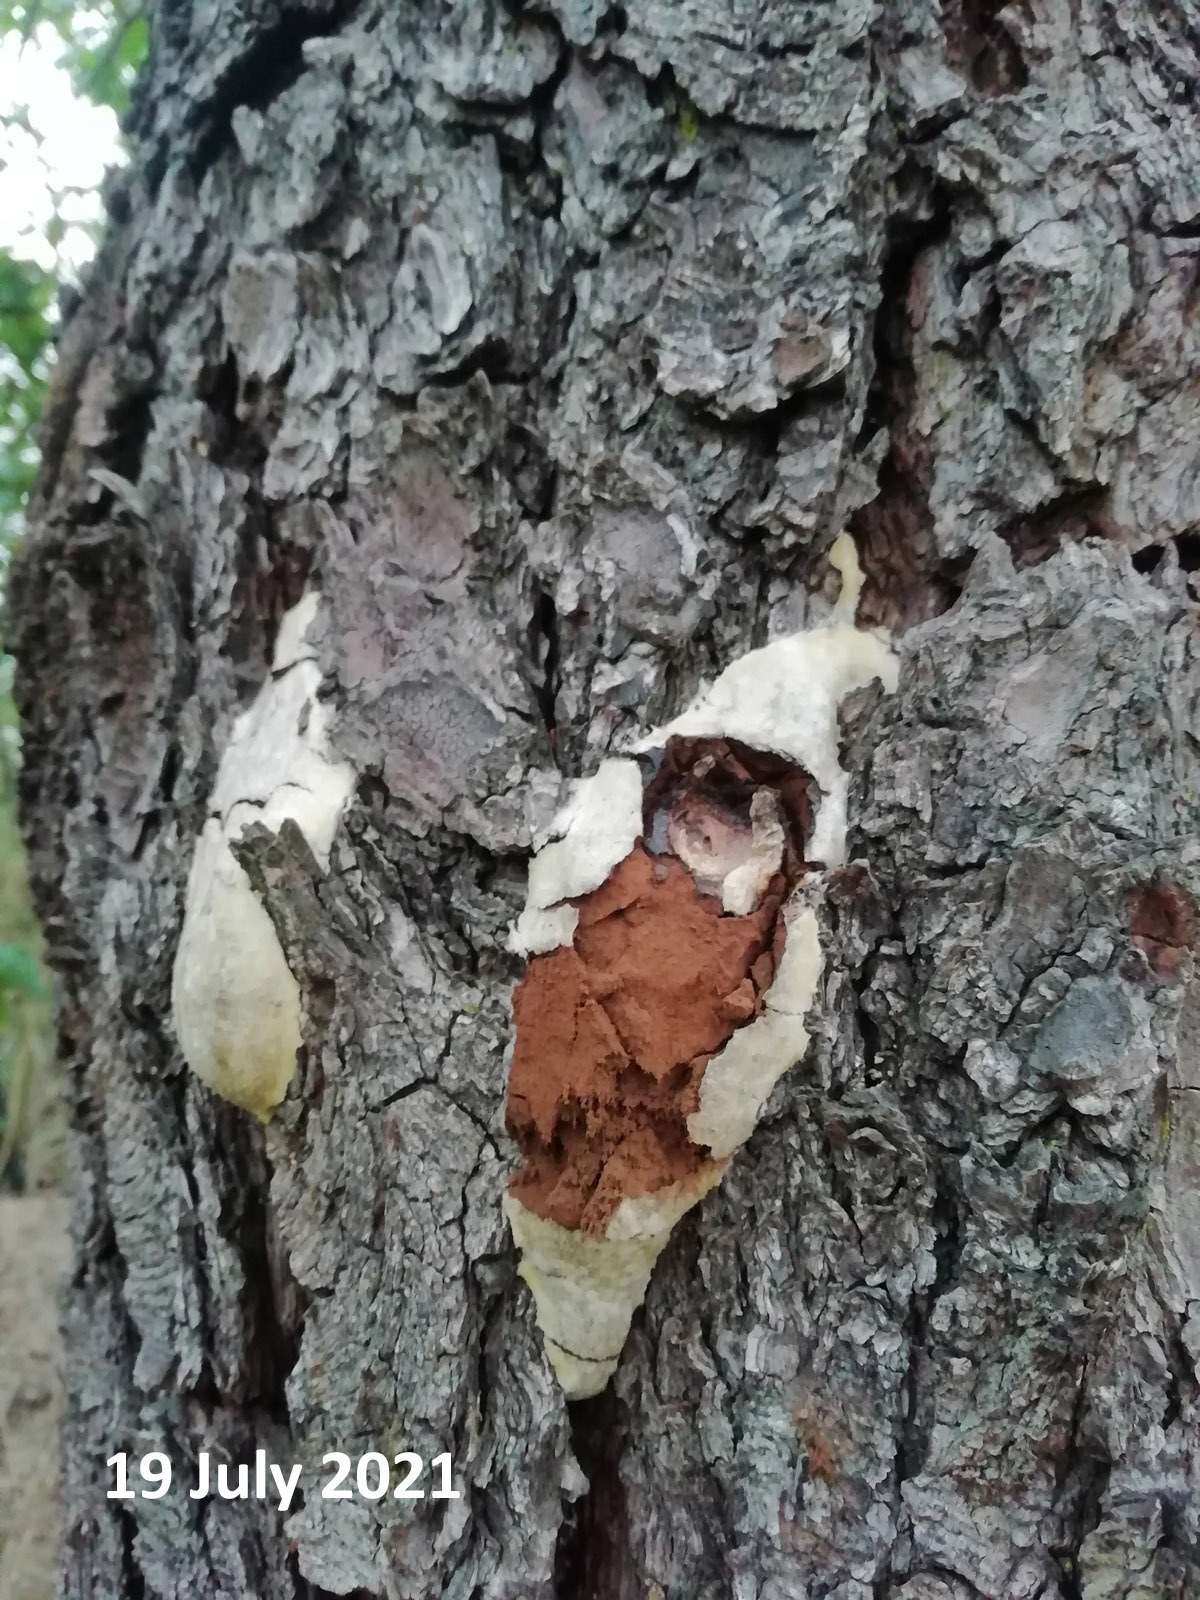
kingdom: Protozoa
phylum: Mycetozoa
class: Myxomycetes
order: Cribrariales
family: Tubiferaceae
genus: Reticularia
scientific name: Reticularia lycoperdon
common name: False puffball
